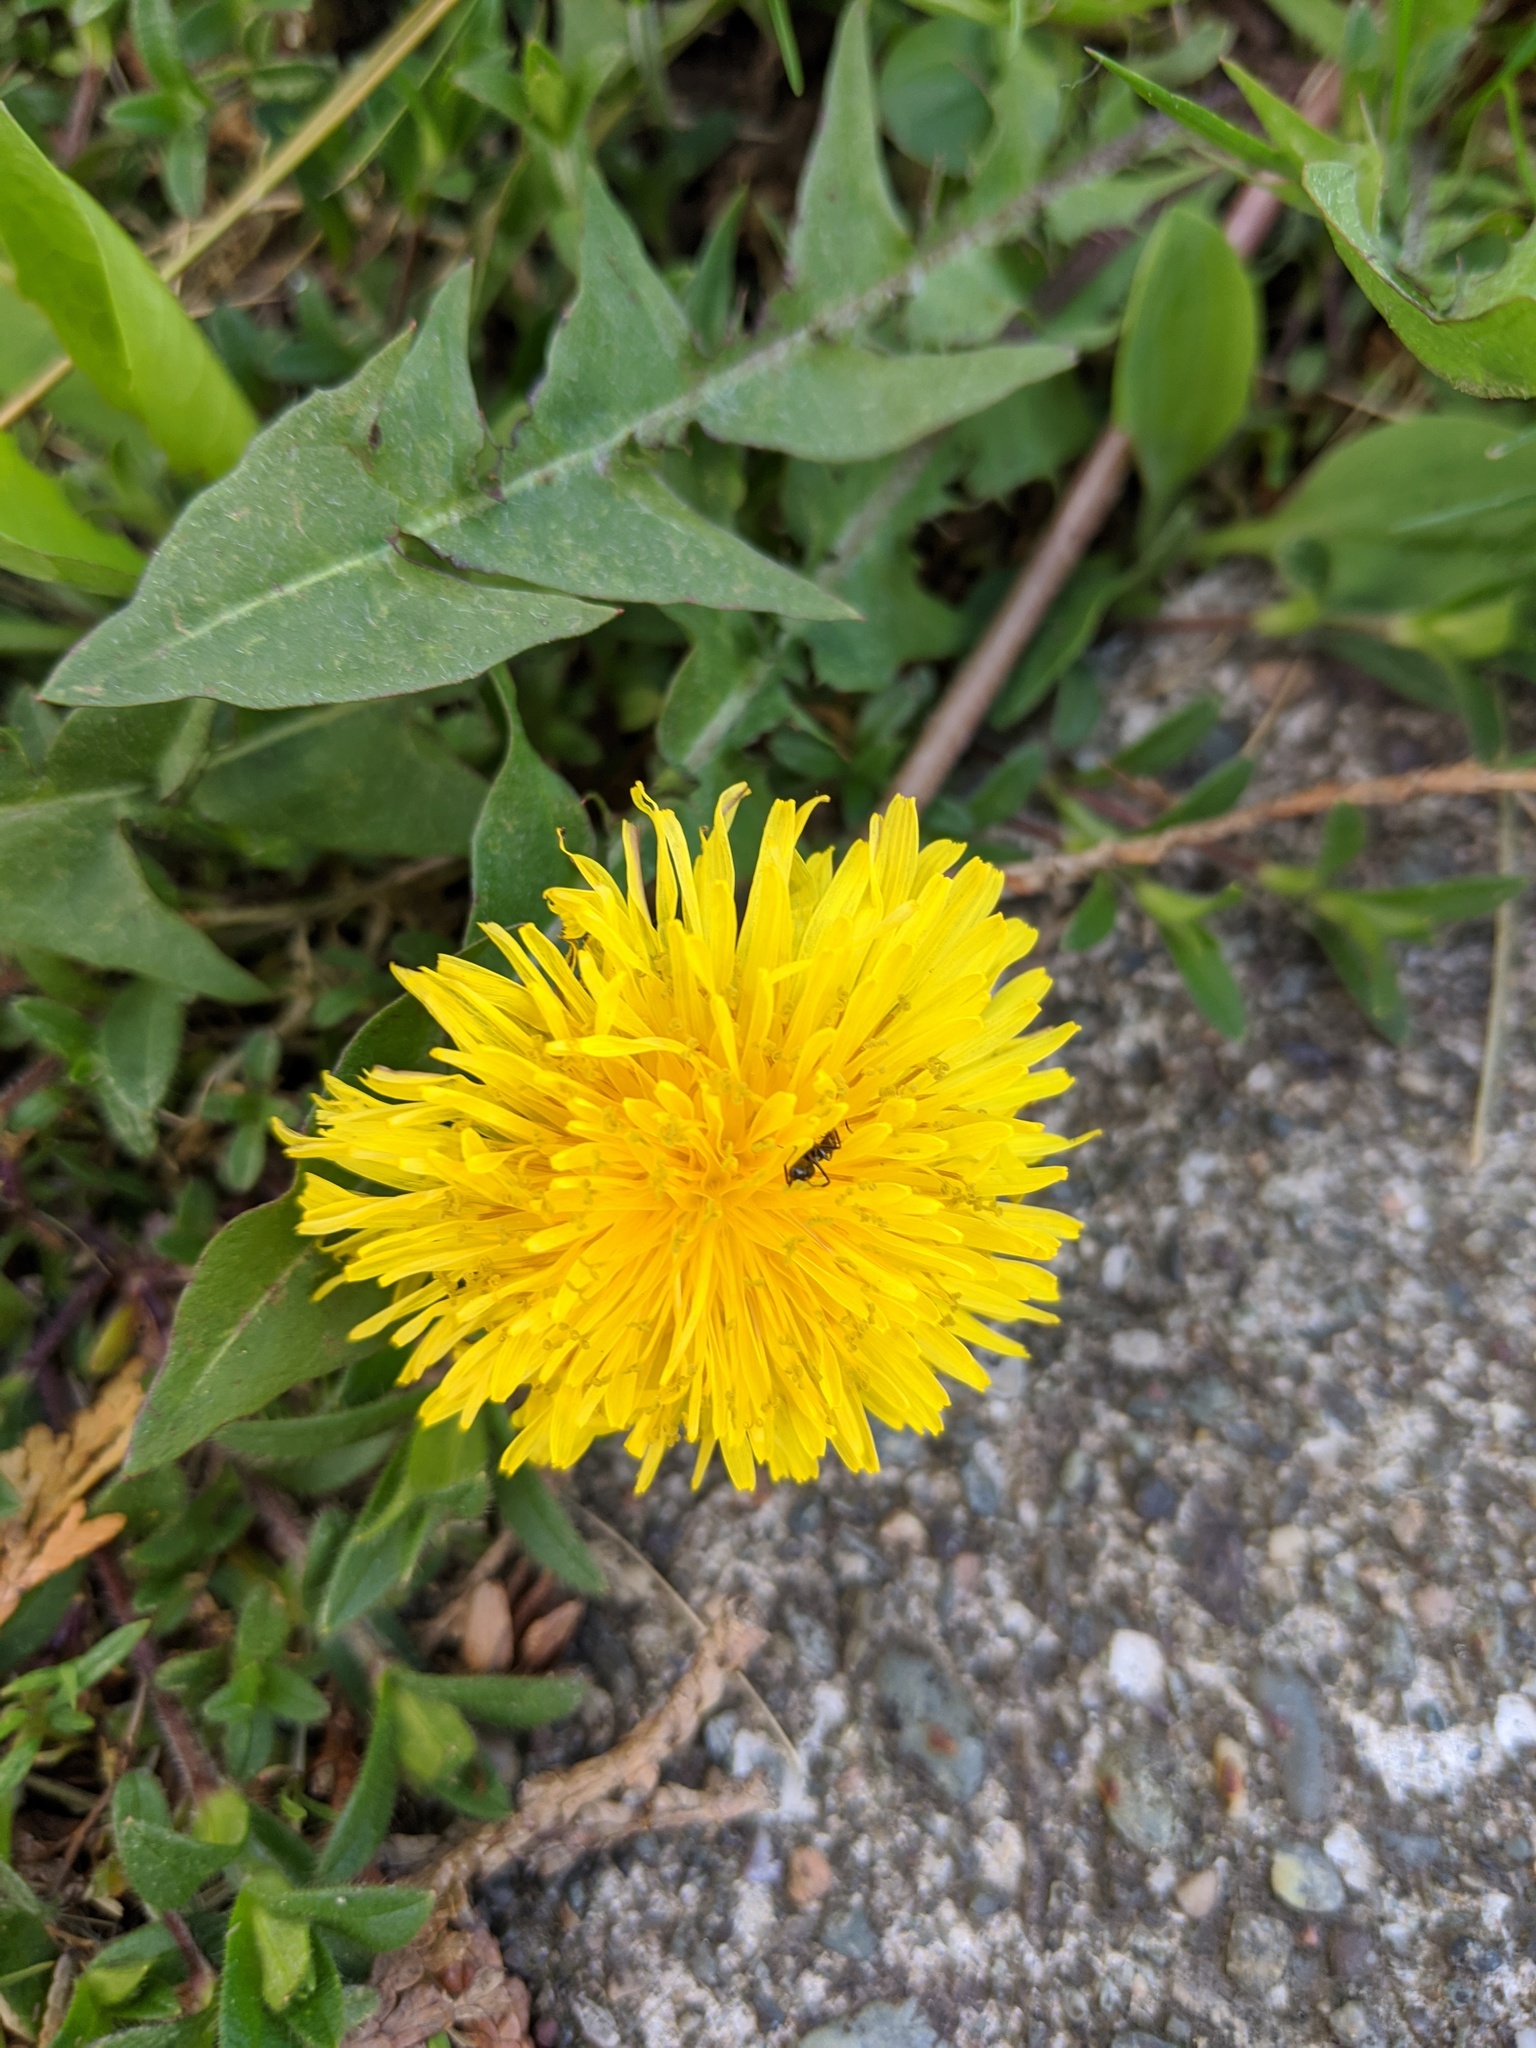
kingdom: Plantae
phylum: Tracheophyta
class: Magnoliopsida
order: Asterales
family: Asteraceae
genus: Taraxacum
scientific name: Taraxacum officinale
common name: Common dandelion
